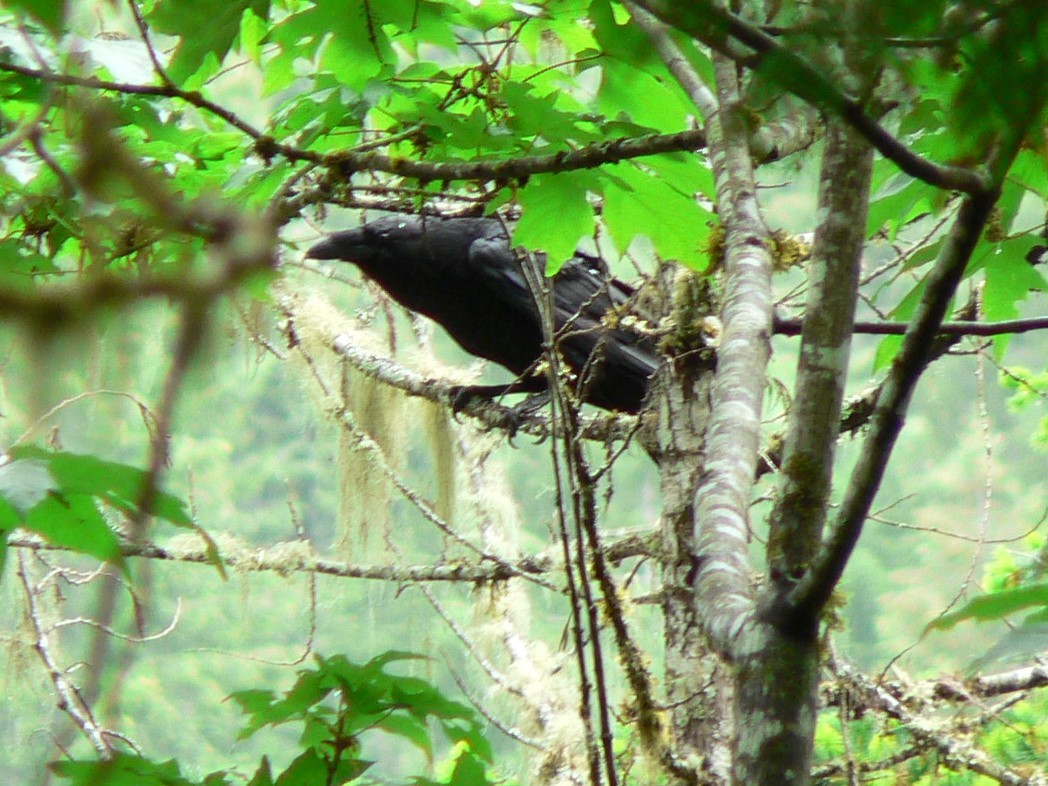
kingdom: Animalia
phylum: Chordata
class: Aves
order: Passeriformes
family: Corvidae
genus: Corvus
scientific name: Corvus corax
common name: Common raven
